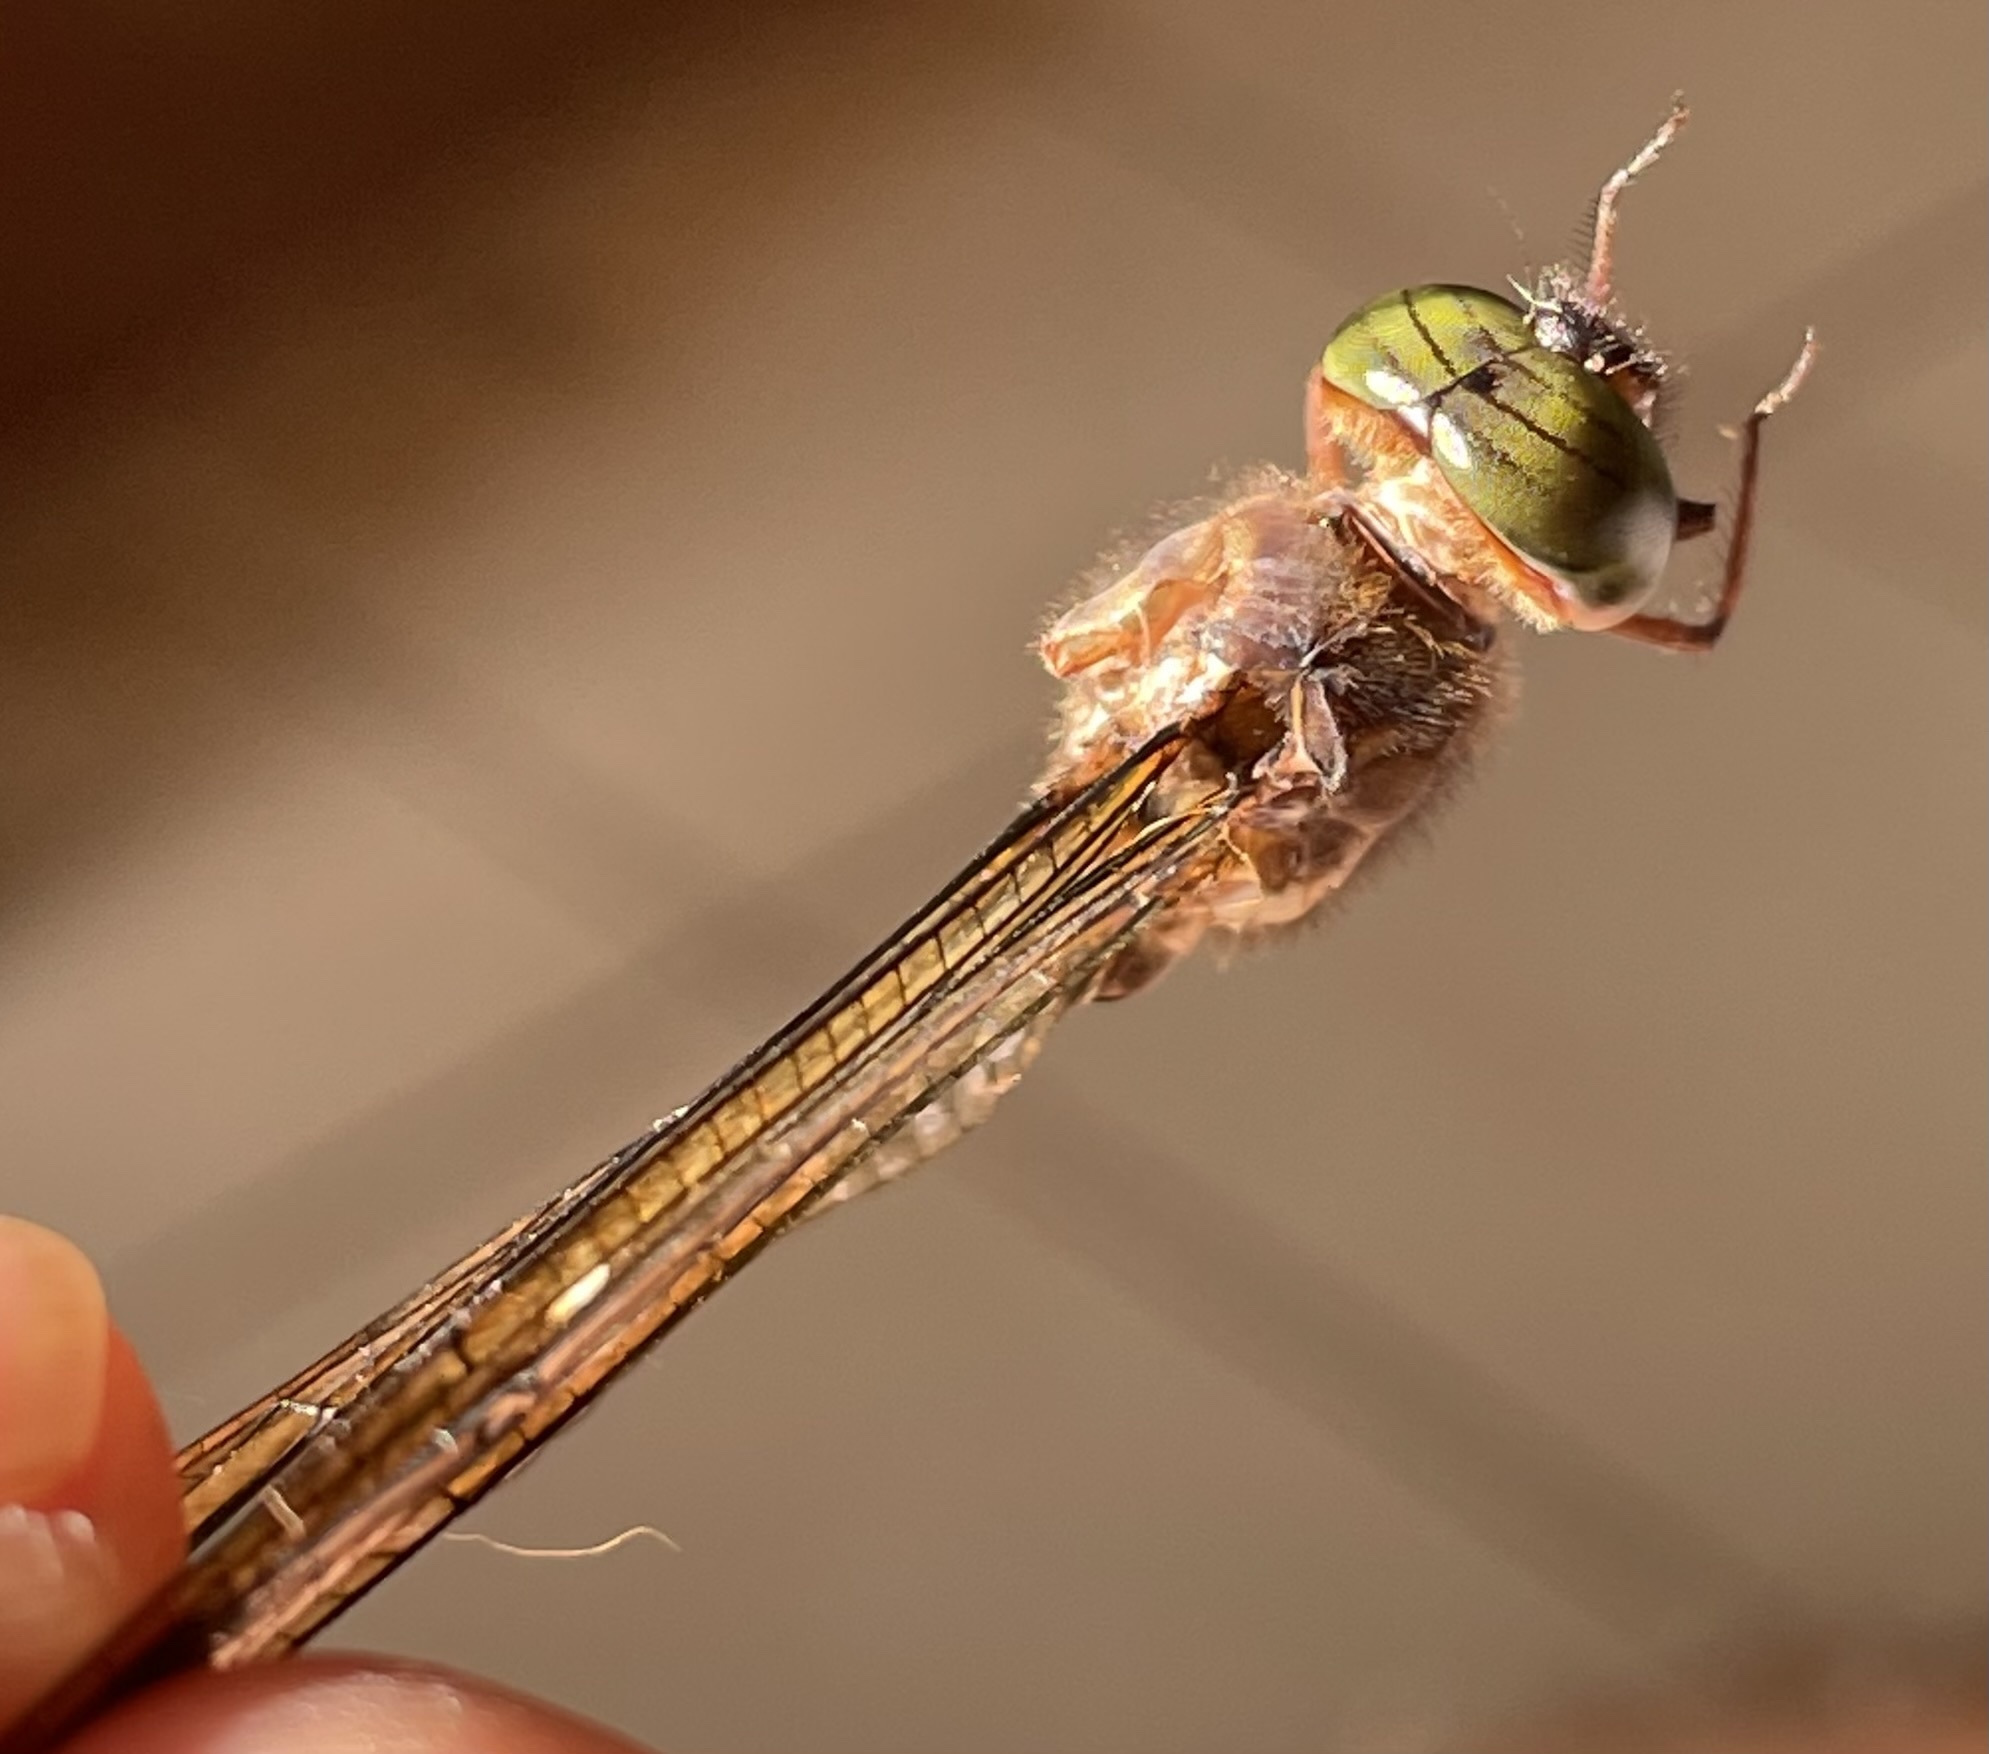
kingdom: Animalia
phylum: Arthropoda
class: Insecta
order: Odonata
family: Libellulidae
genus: Zyxomma
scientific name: Zyxomma atlanticum
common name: Clear-winged dusk-darter
